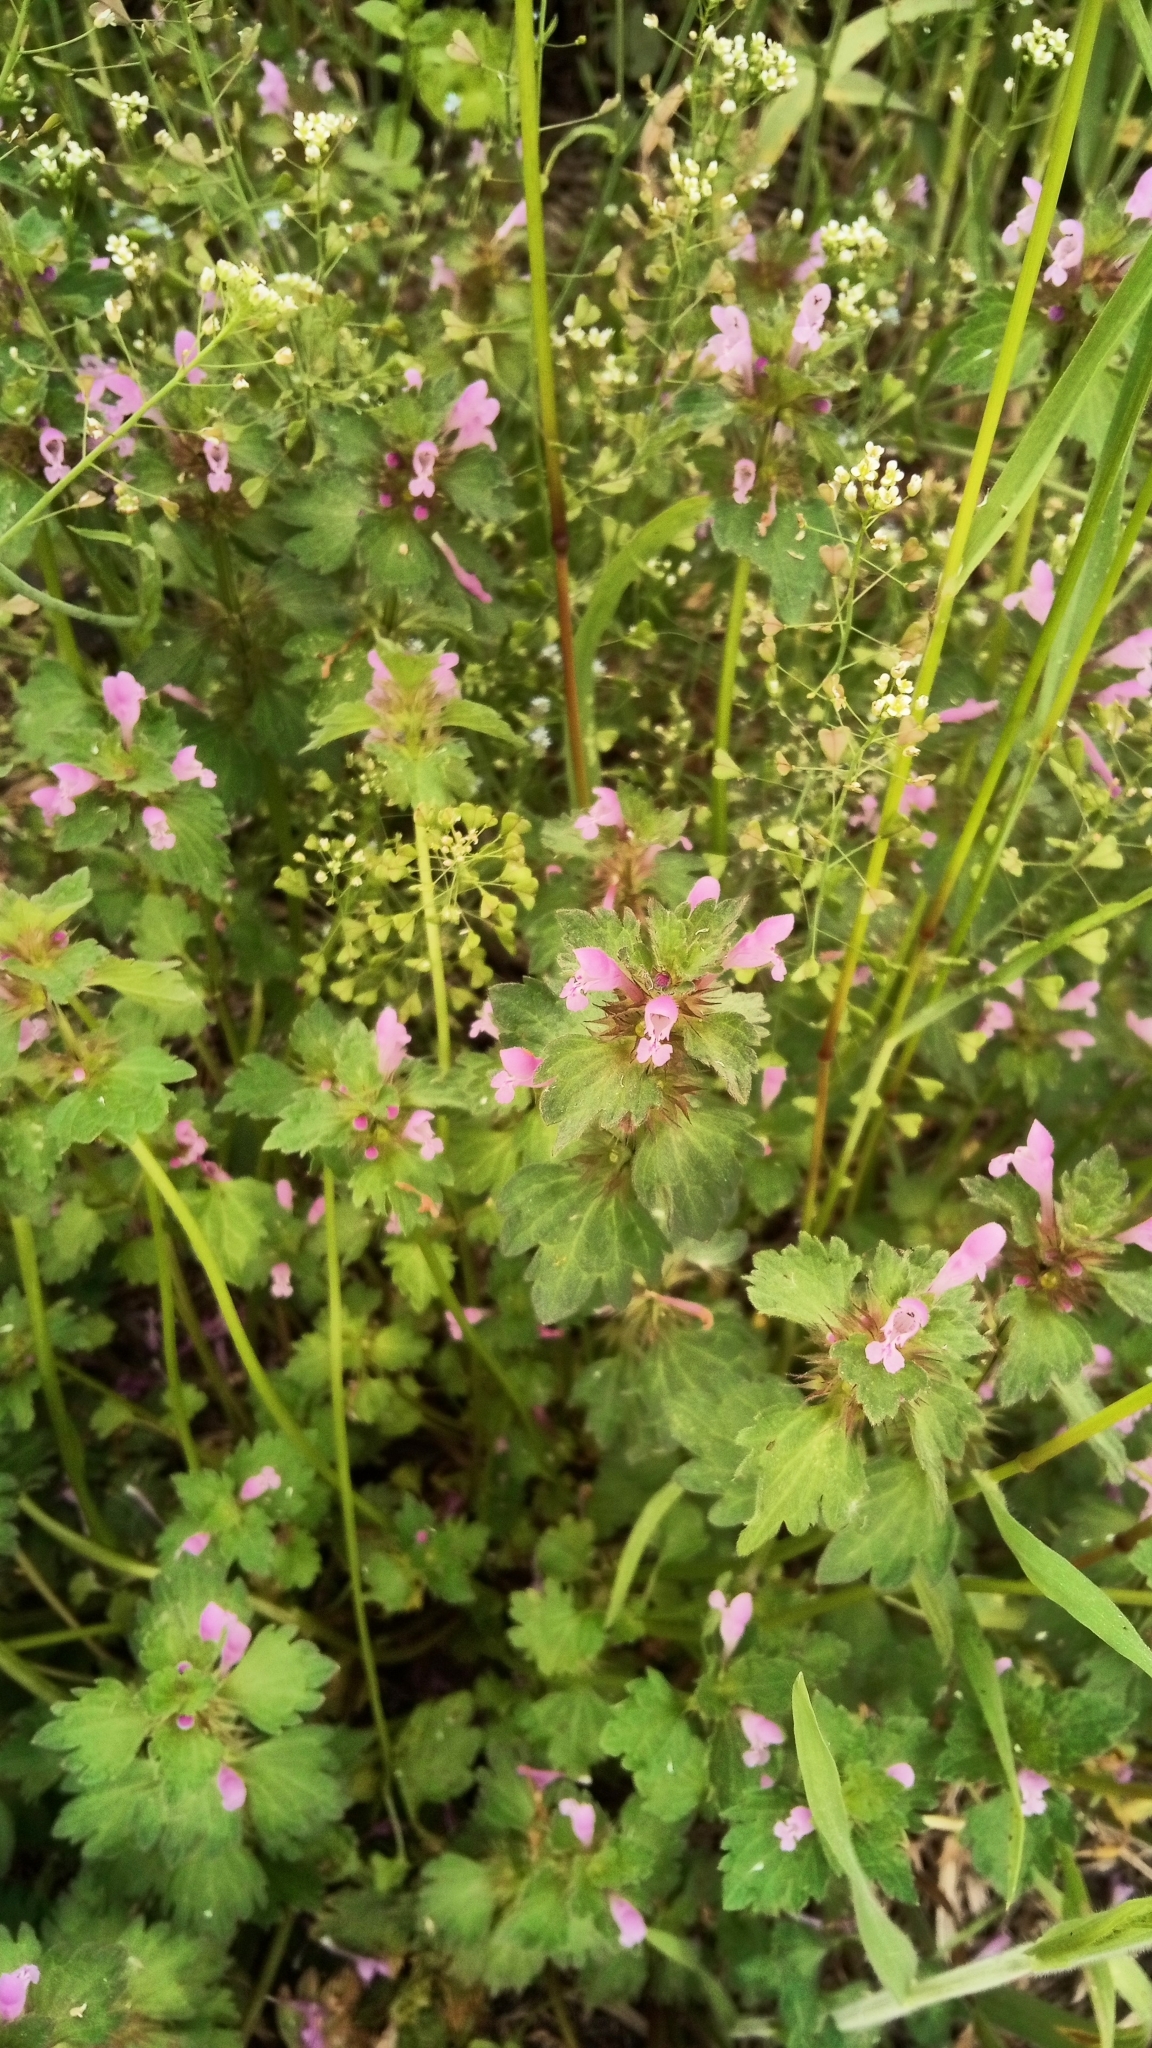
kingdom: Plantae
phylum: Tracheophyta
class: Magnoliopsida
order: Lamiales
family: Lamiaceae
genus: Lamium
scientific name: Lamium hybridum
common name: Cut-leaved dead-nettle
